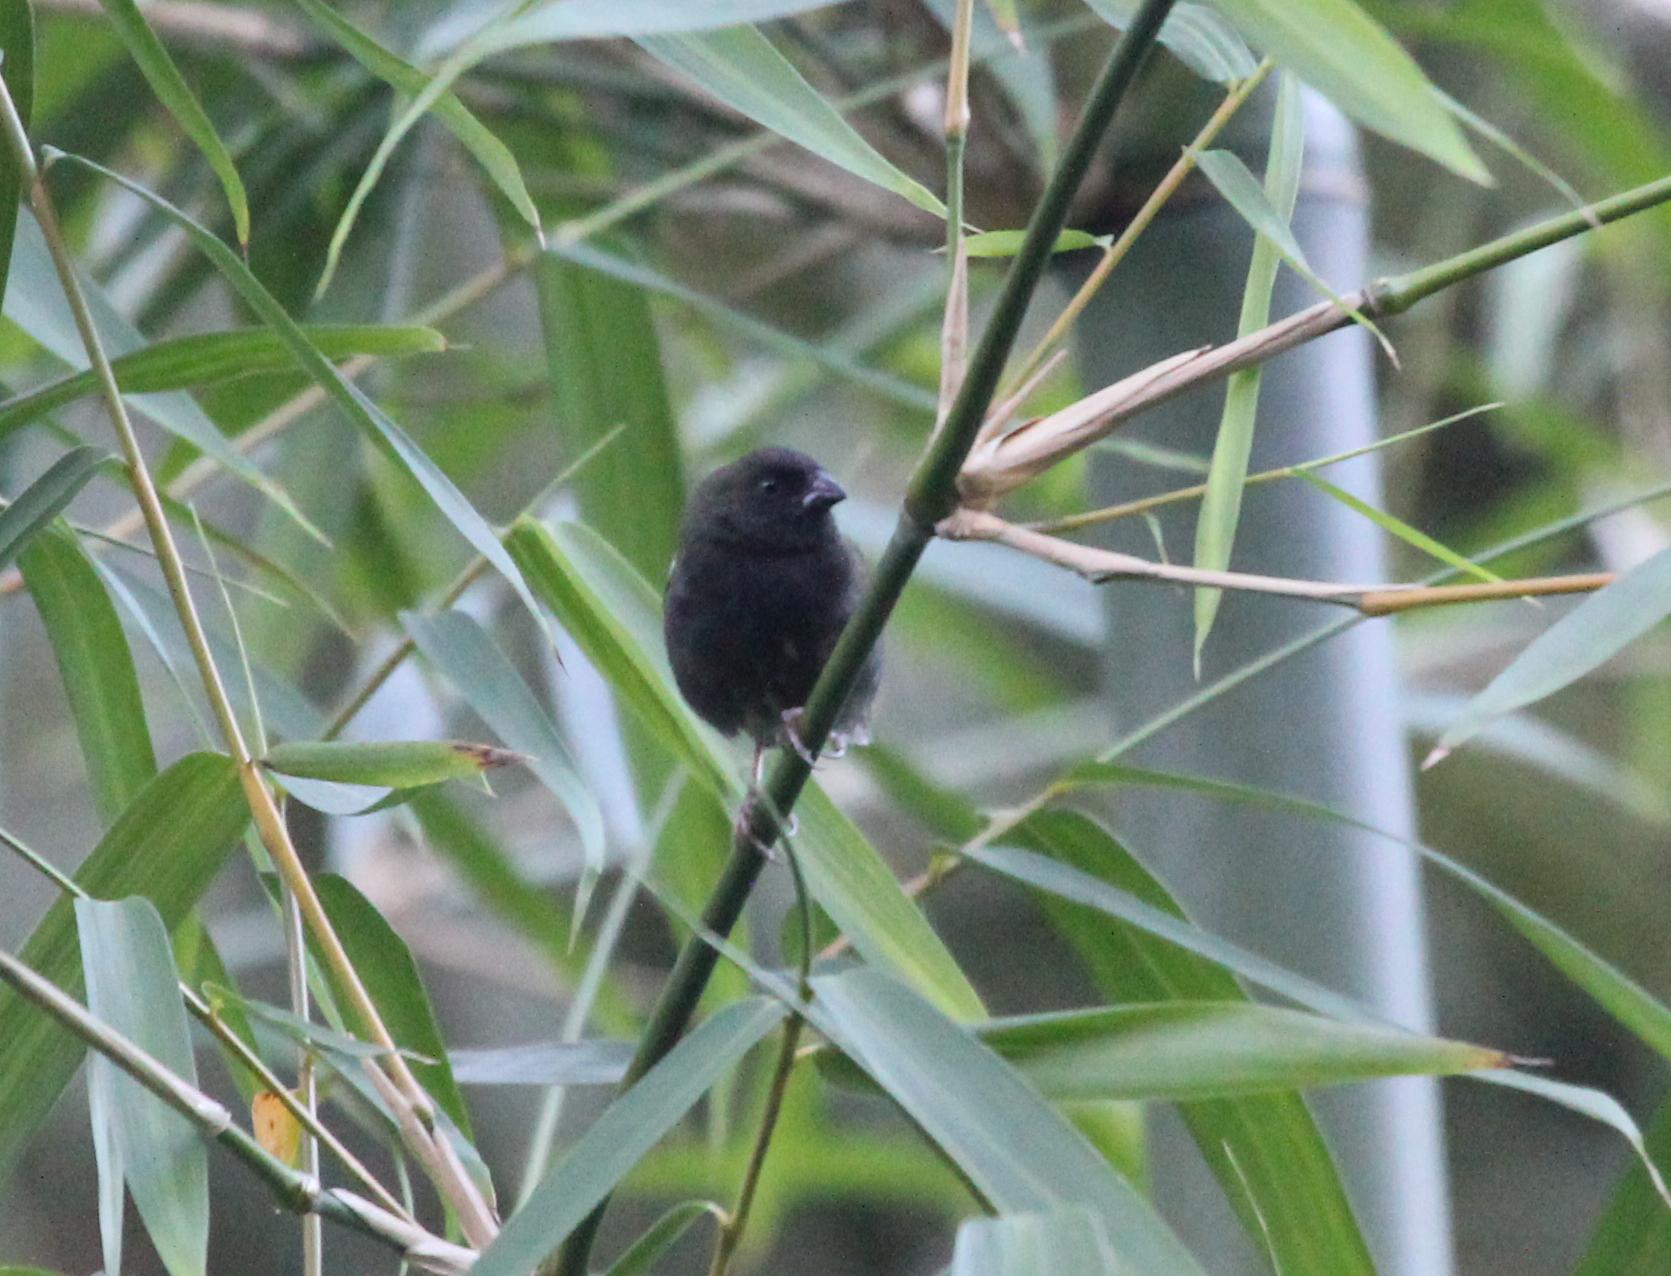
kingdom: Animalia
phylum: Chordata
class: Aves
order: Passeriformes
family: Thraupidae
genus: Melanospiza
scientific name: Melanospiza bicolor
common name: Black-faced grassquit
